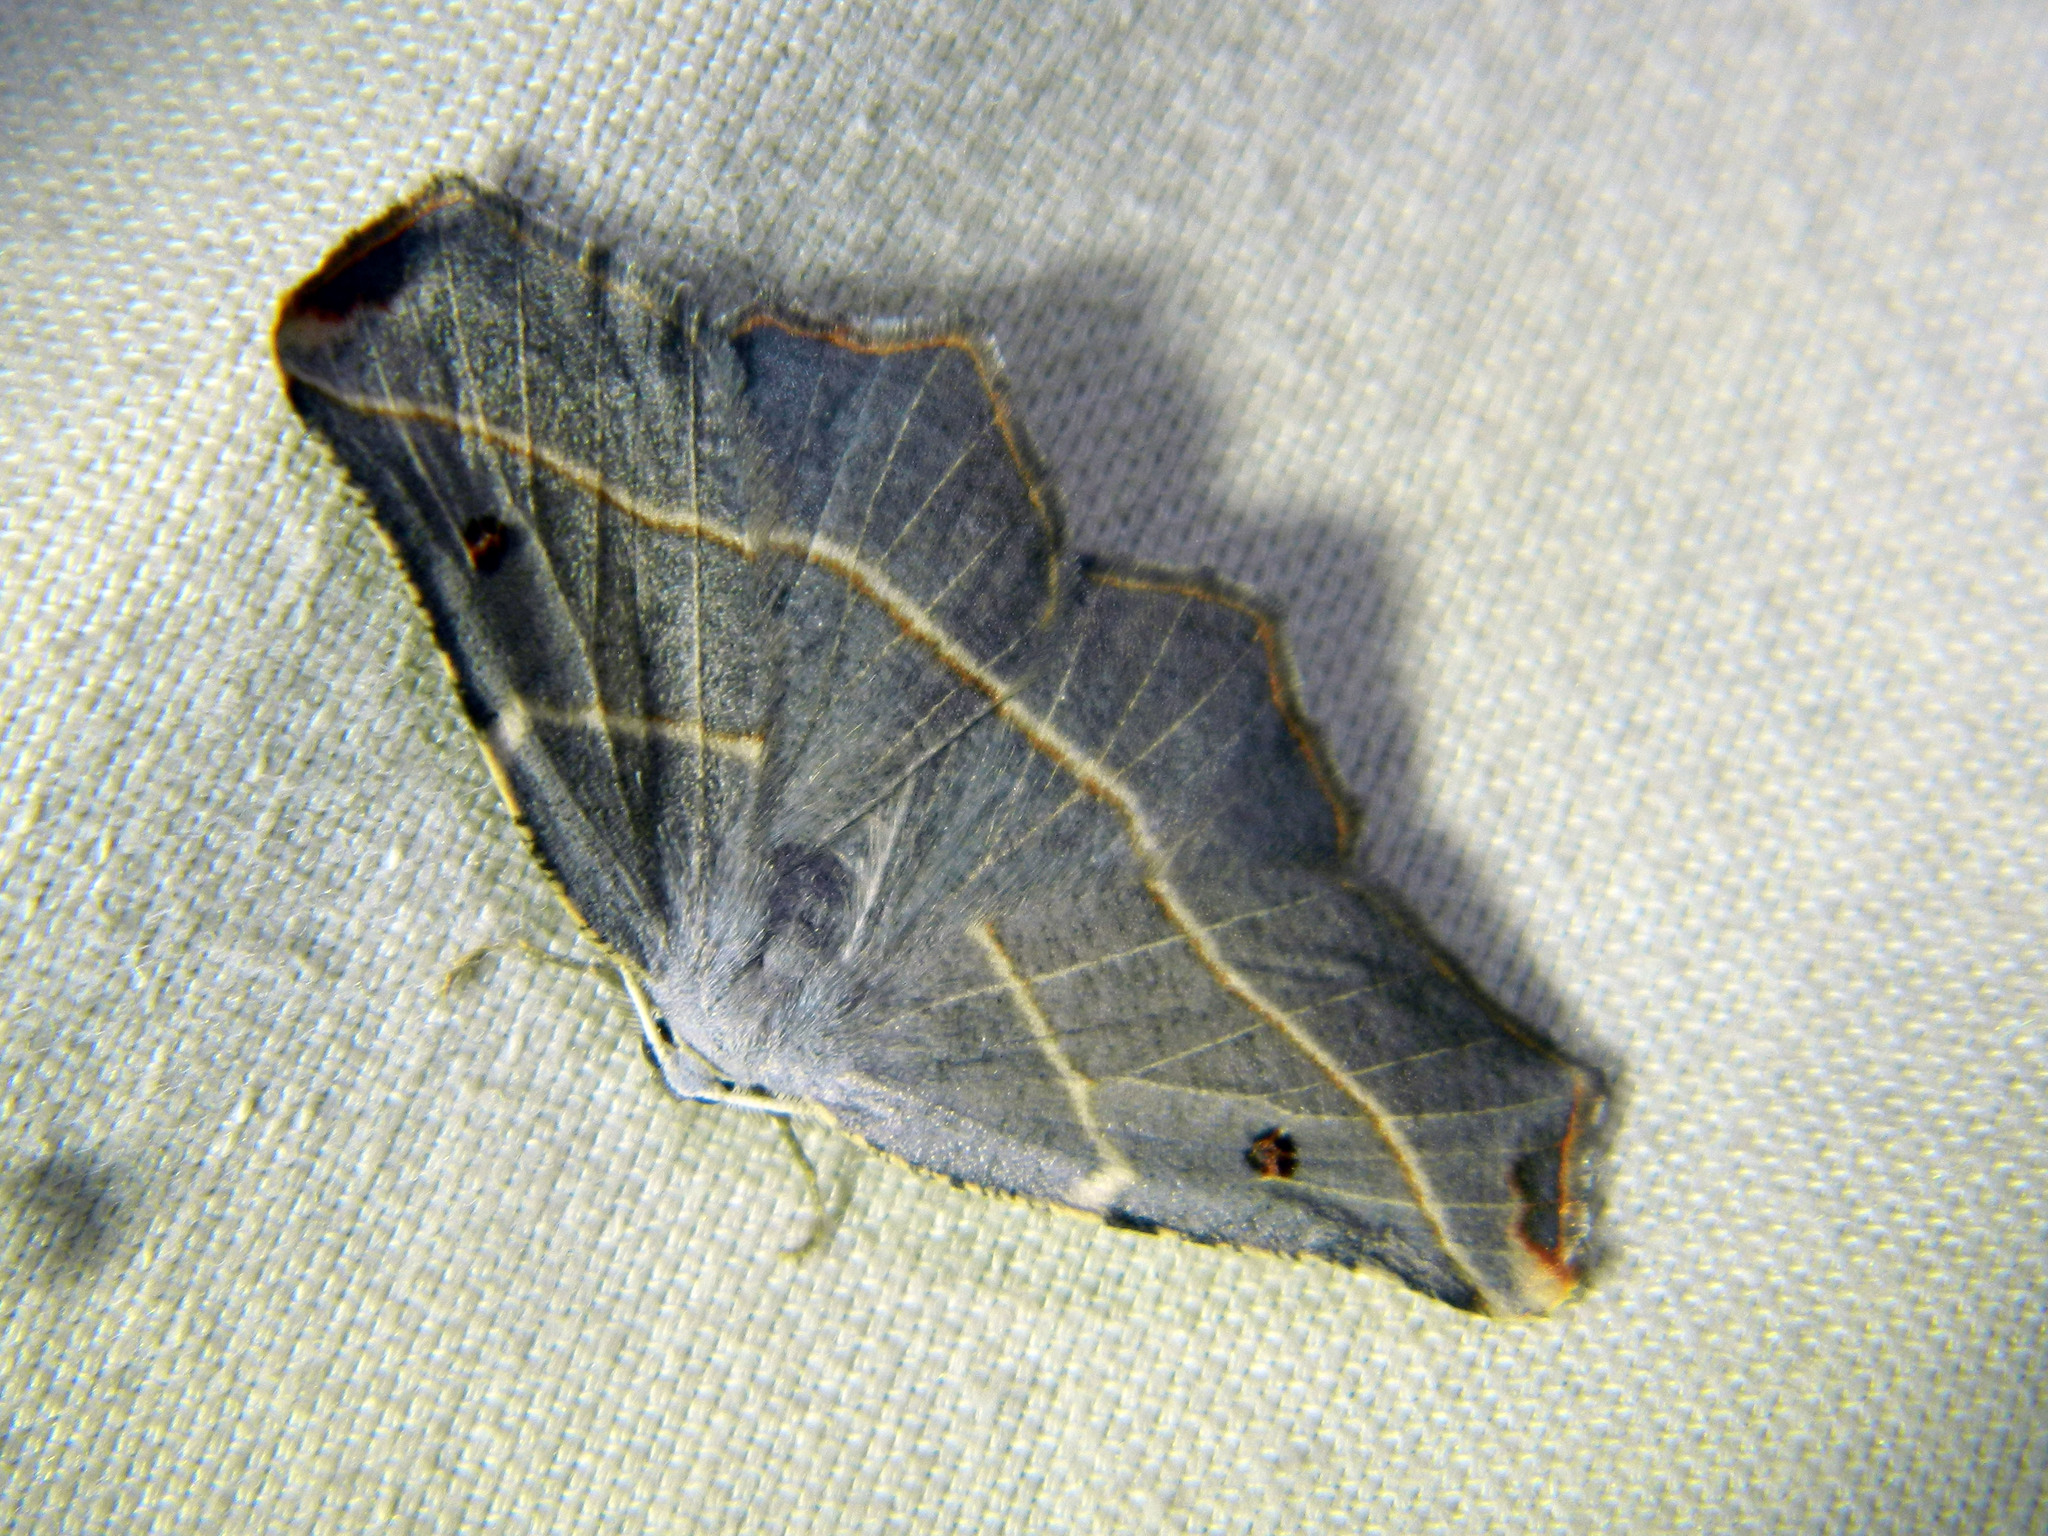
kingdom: Animalia
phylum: Arthropoda
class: Insecta
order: Lepidoptera
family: Geometridae
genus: Metanema
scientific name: Metanema inatomaria
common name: Pale metanema
